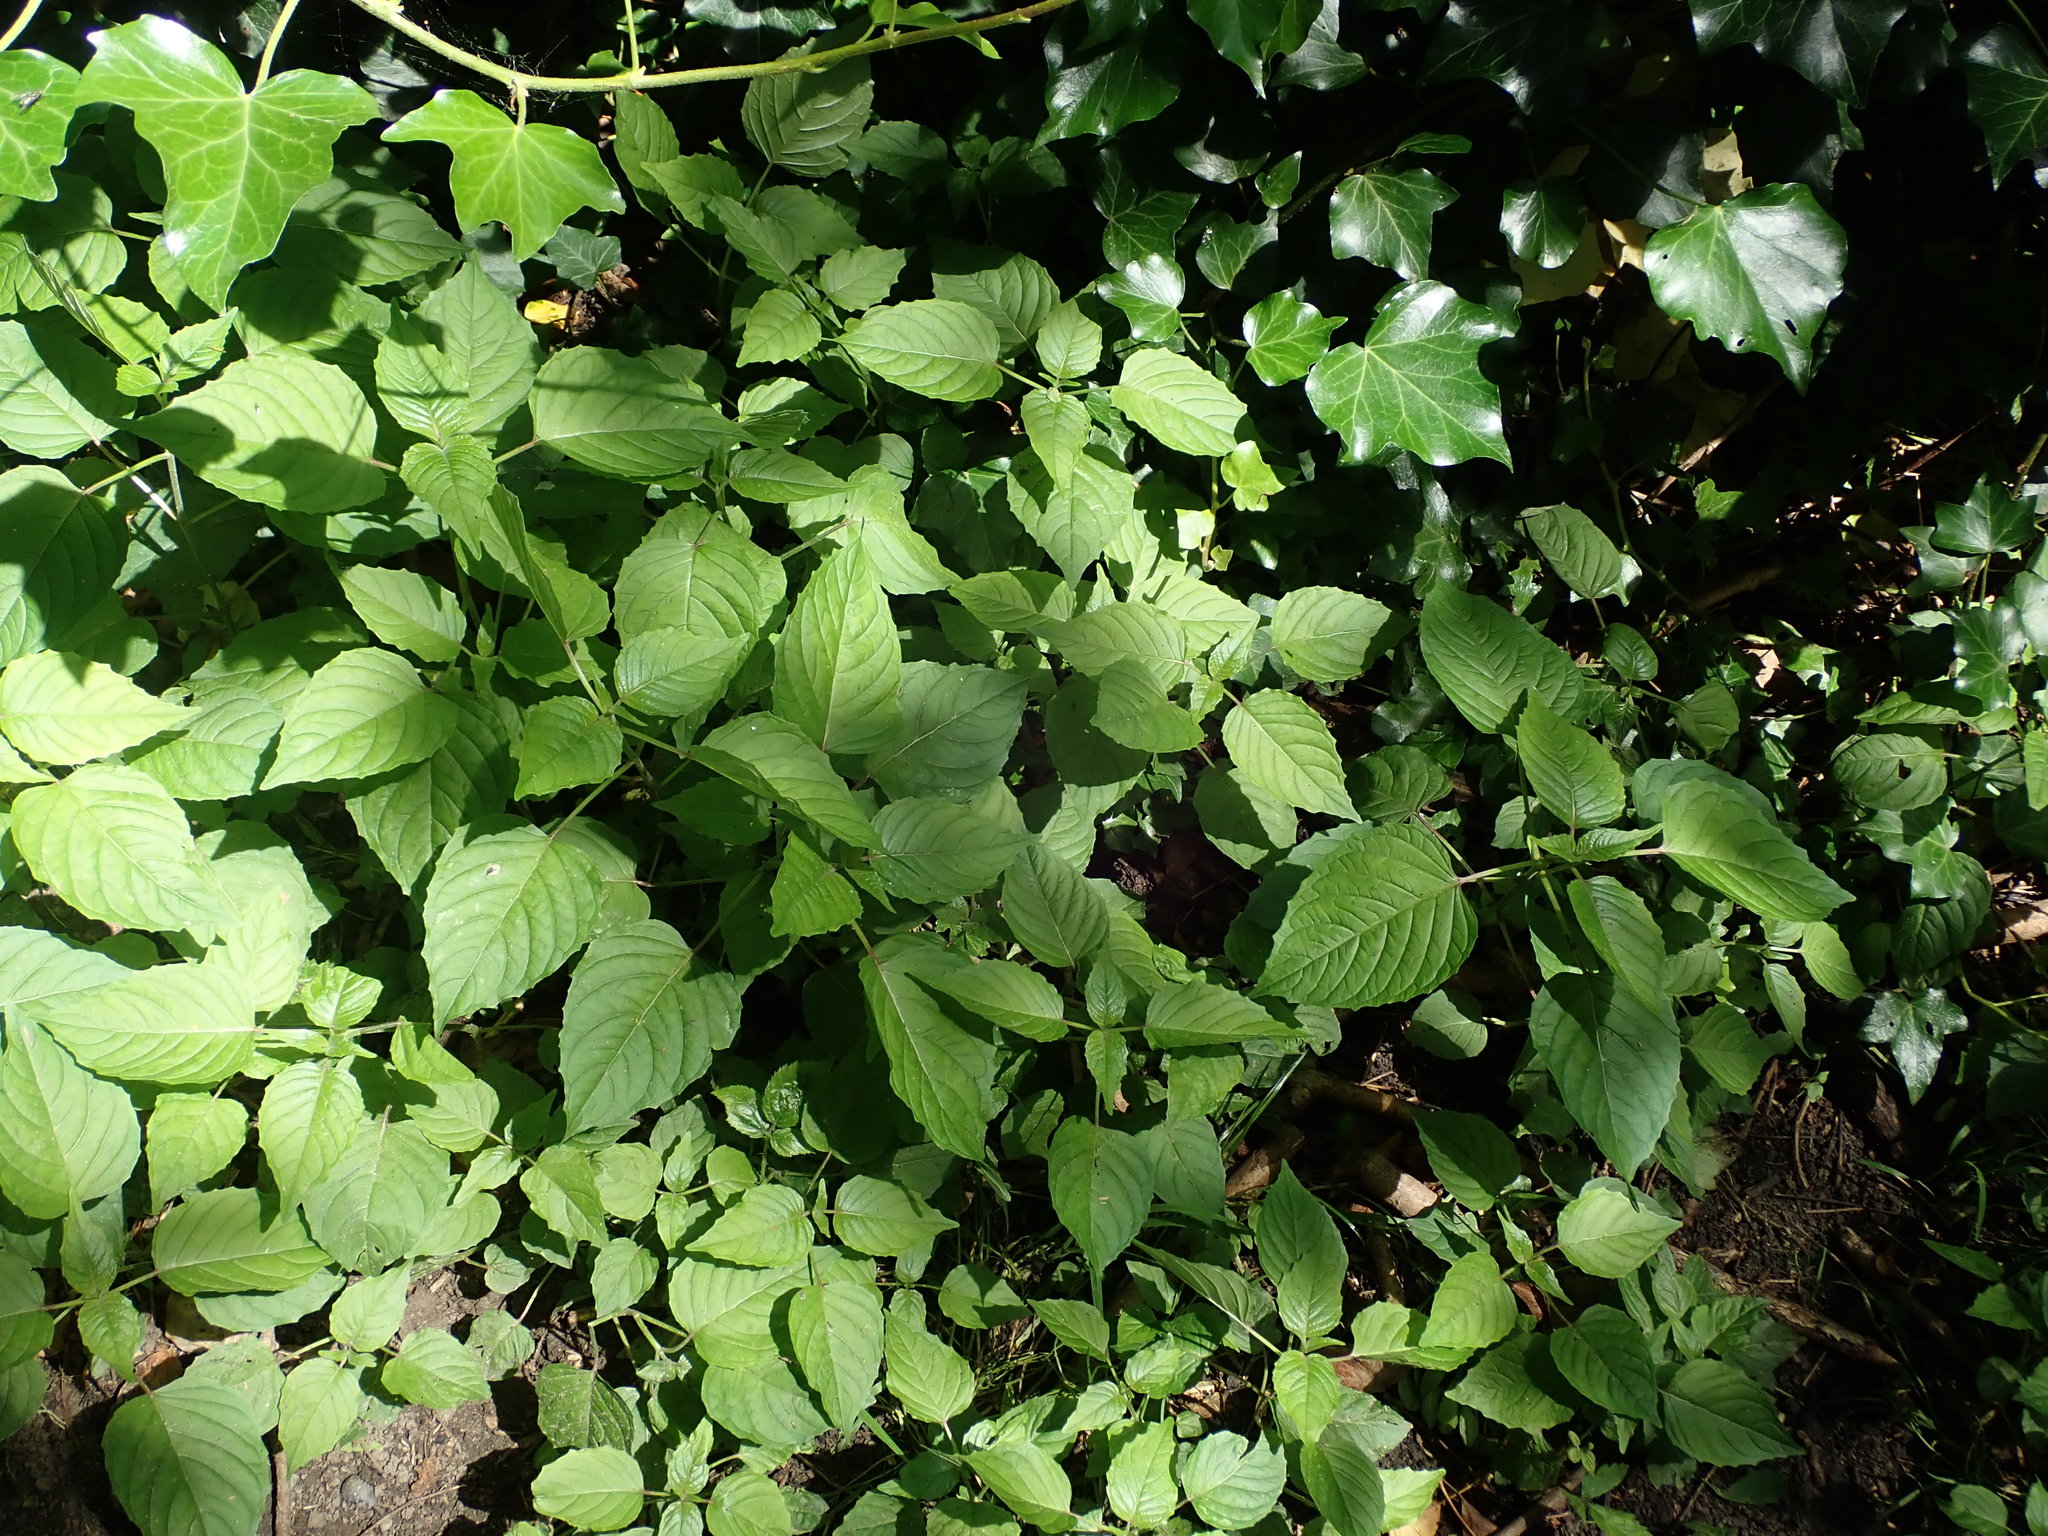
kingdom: Plantae
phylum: Tracheophyta
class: Magnoliopsida
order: Myrtales
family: Onagraceae
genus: Circaea
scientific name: Circaea lutetiana
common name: Enchanter's-nightshade
